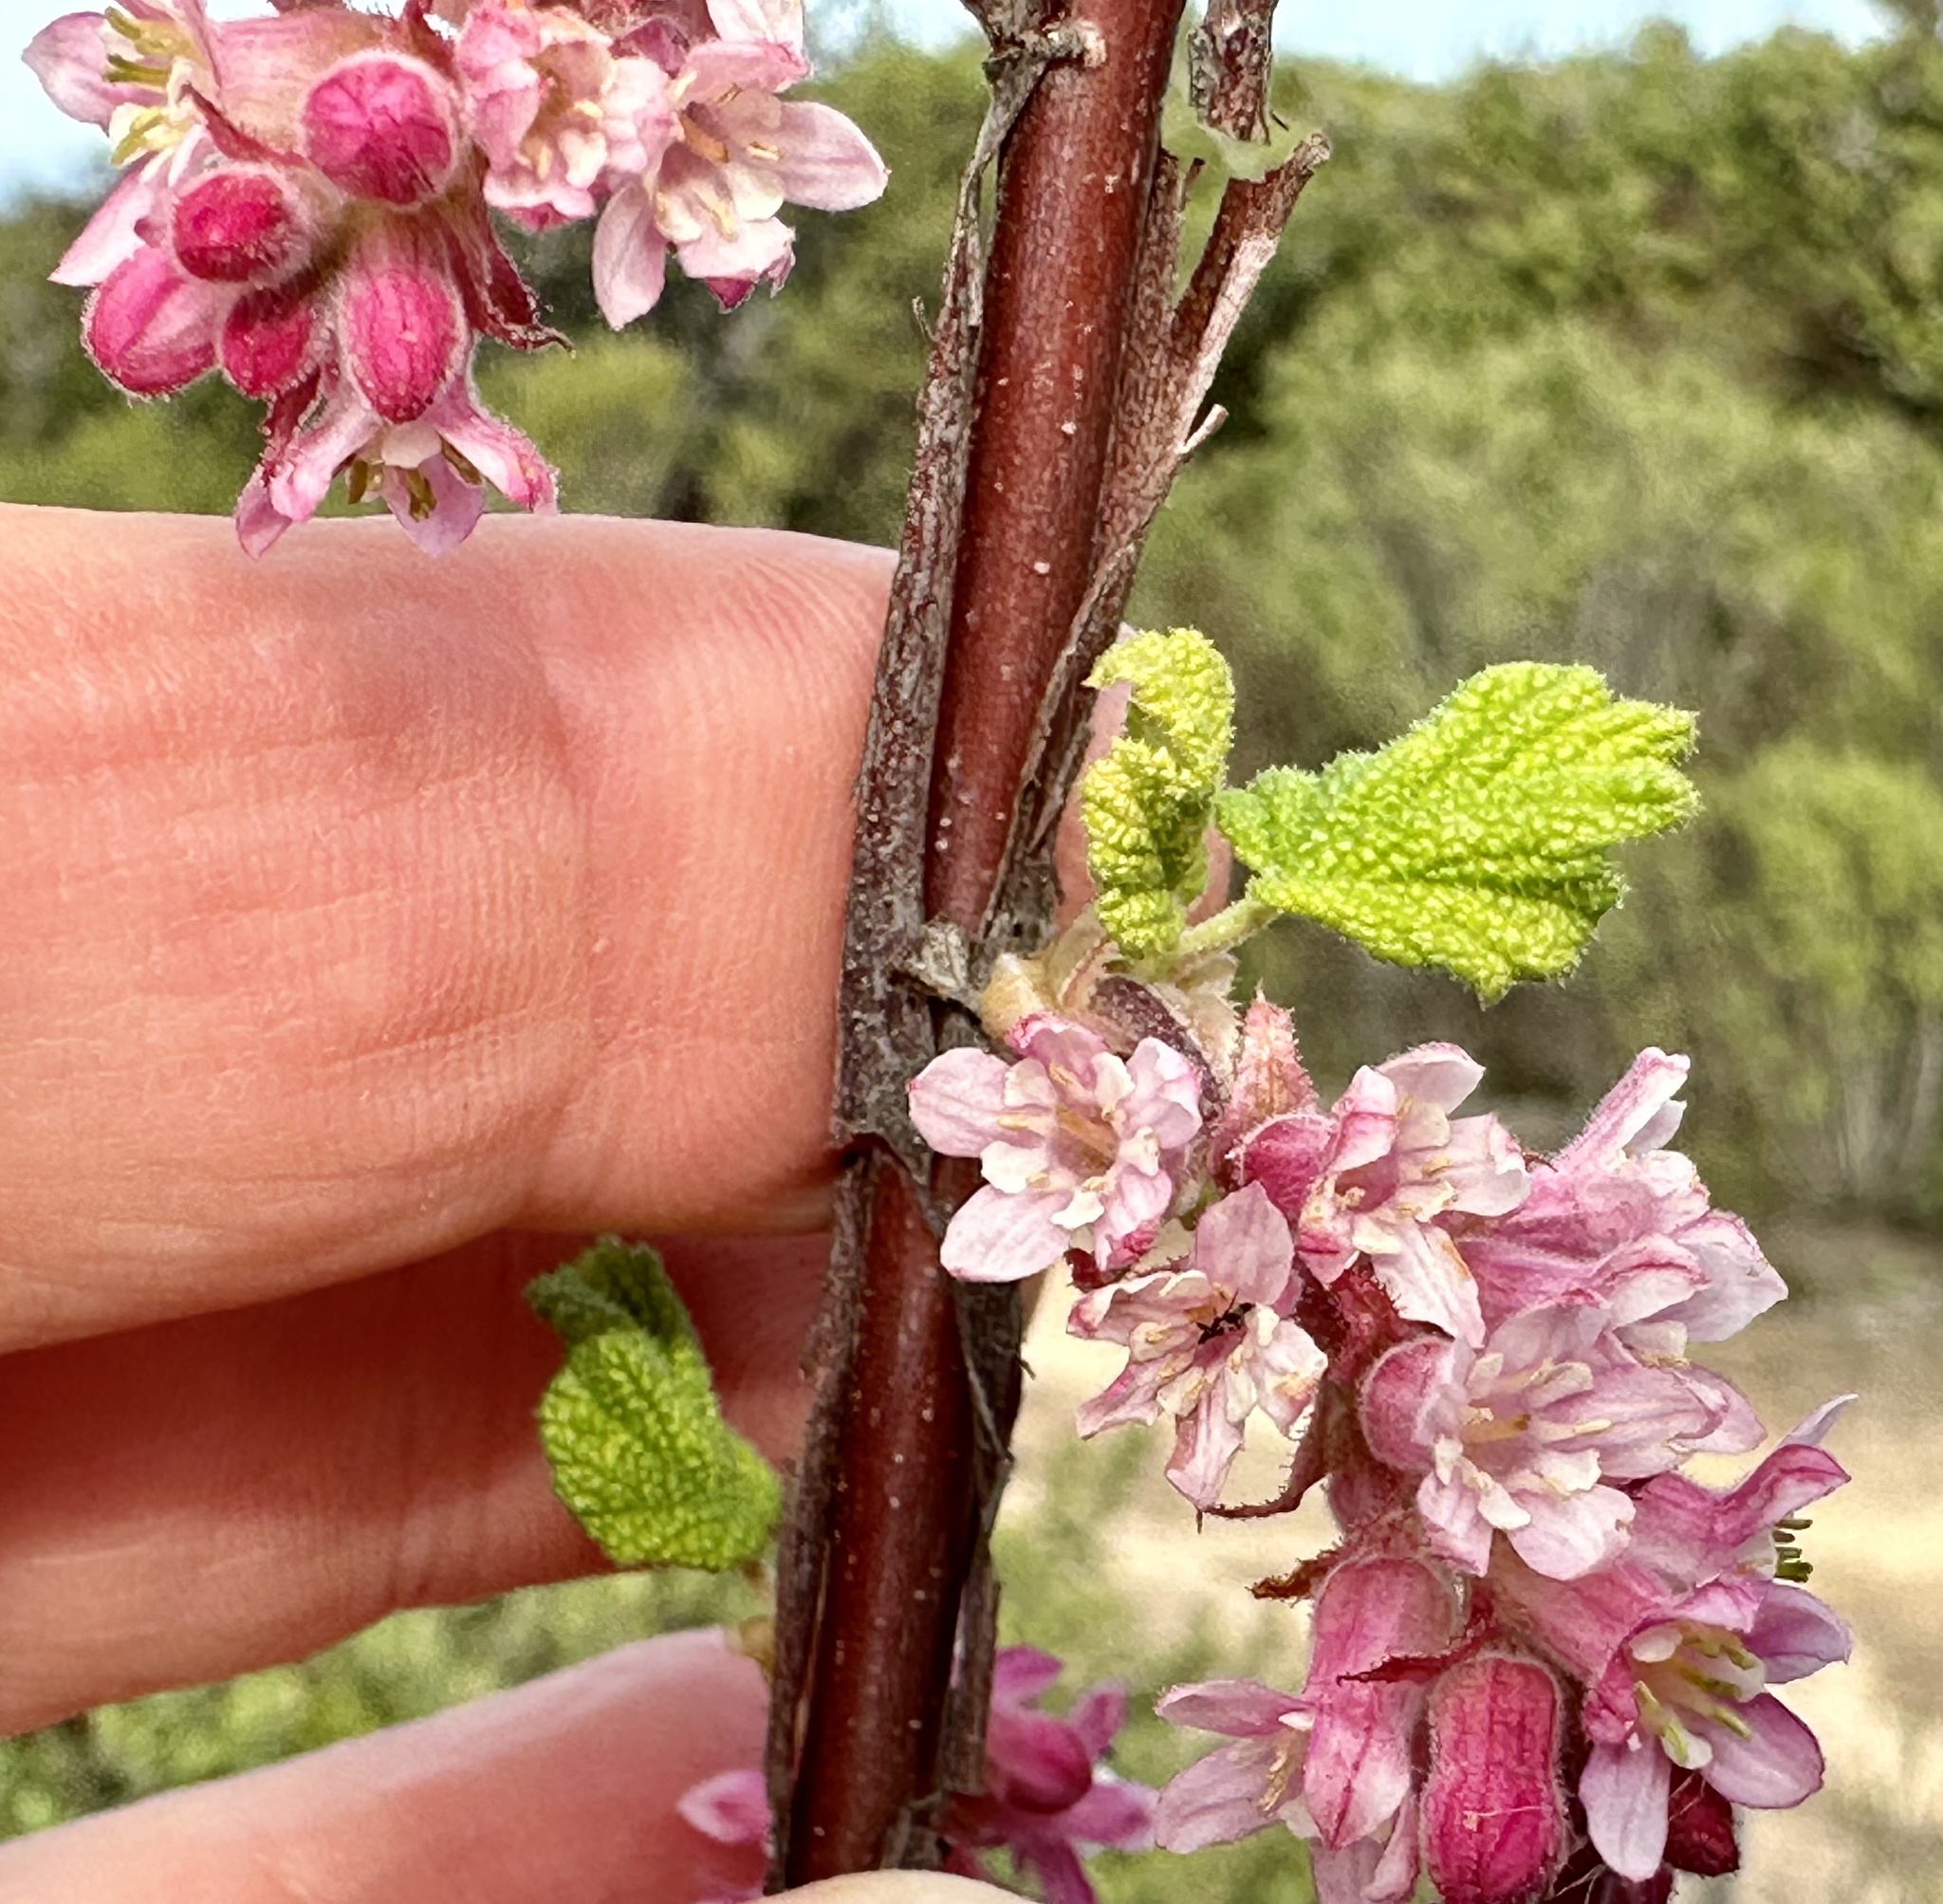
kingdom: Plantae
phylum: Tracheophyta
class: Magnoliopsida
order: Saxifragales
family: Grossulariaceae
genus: Ribes
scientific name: Ribes malvaceum
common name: Chaparral currant
